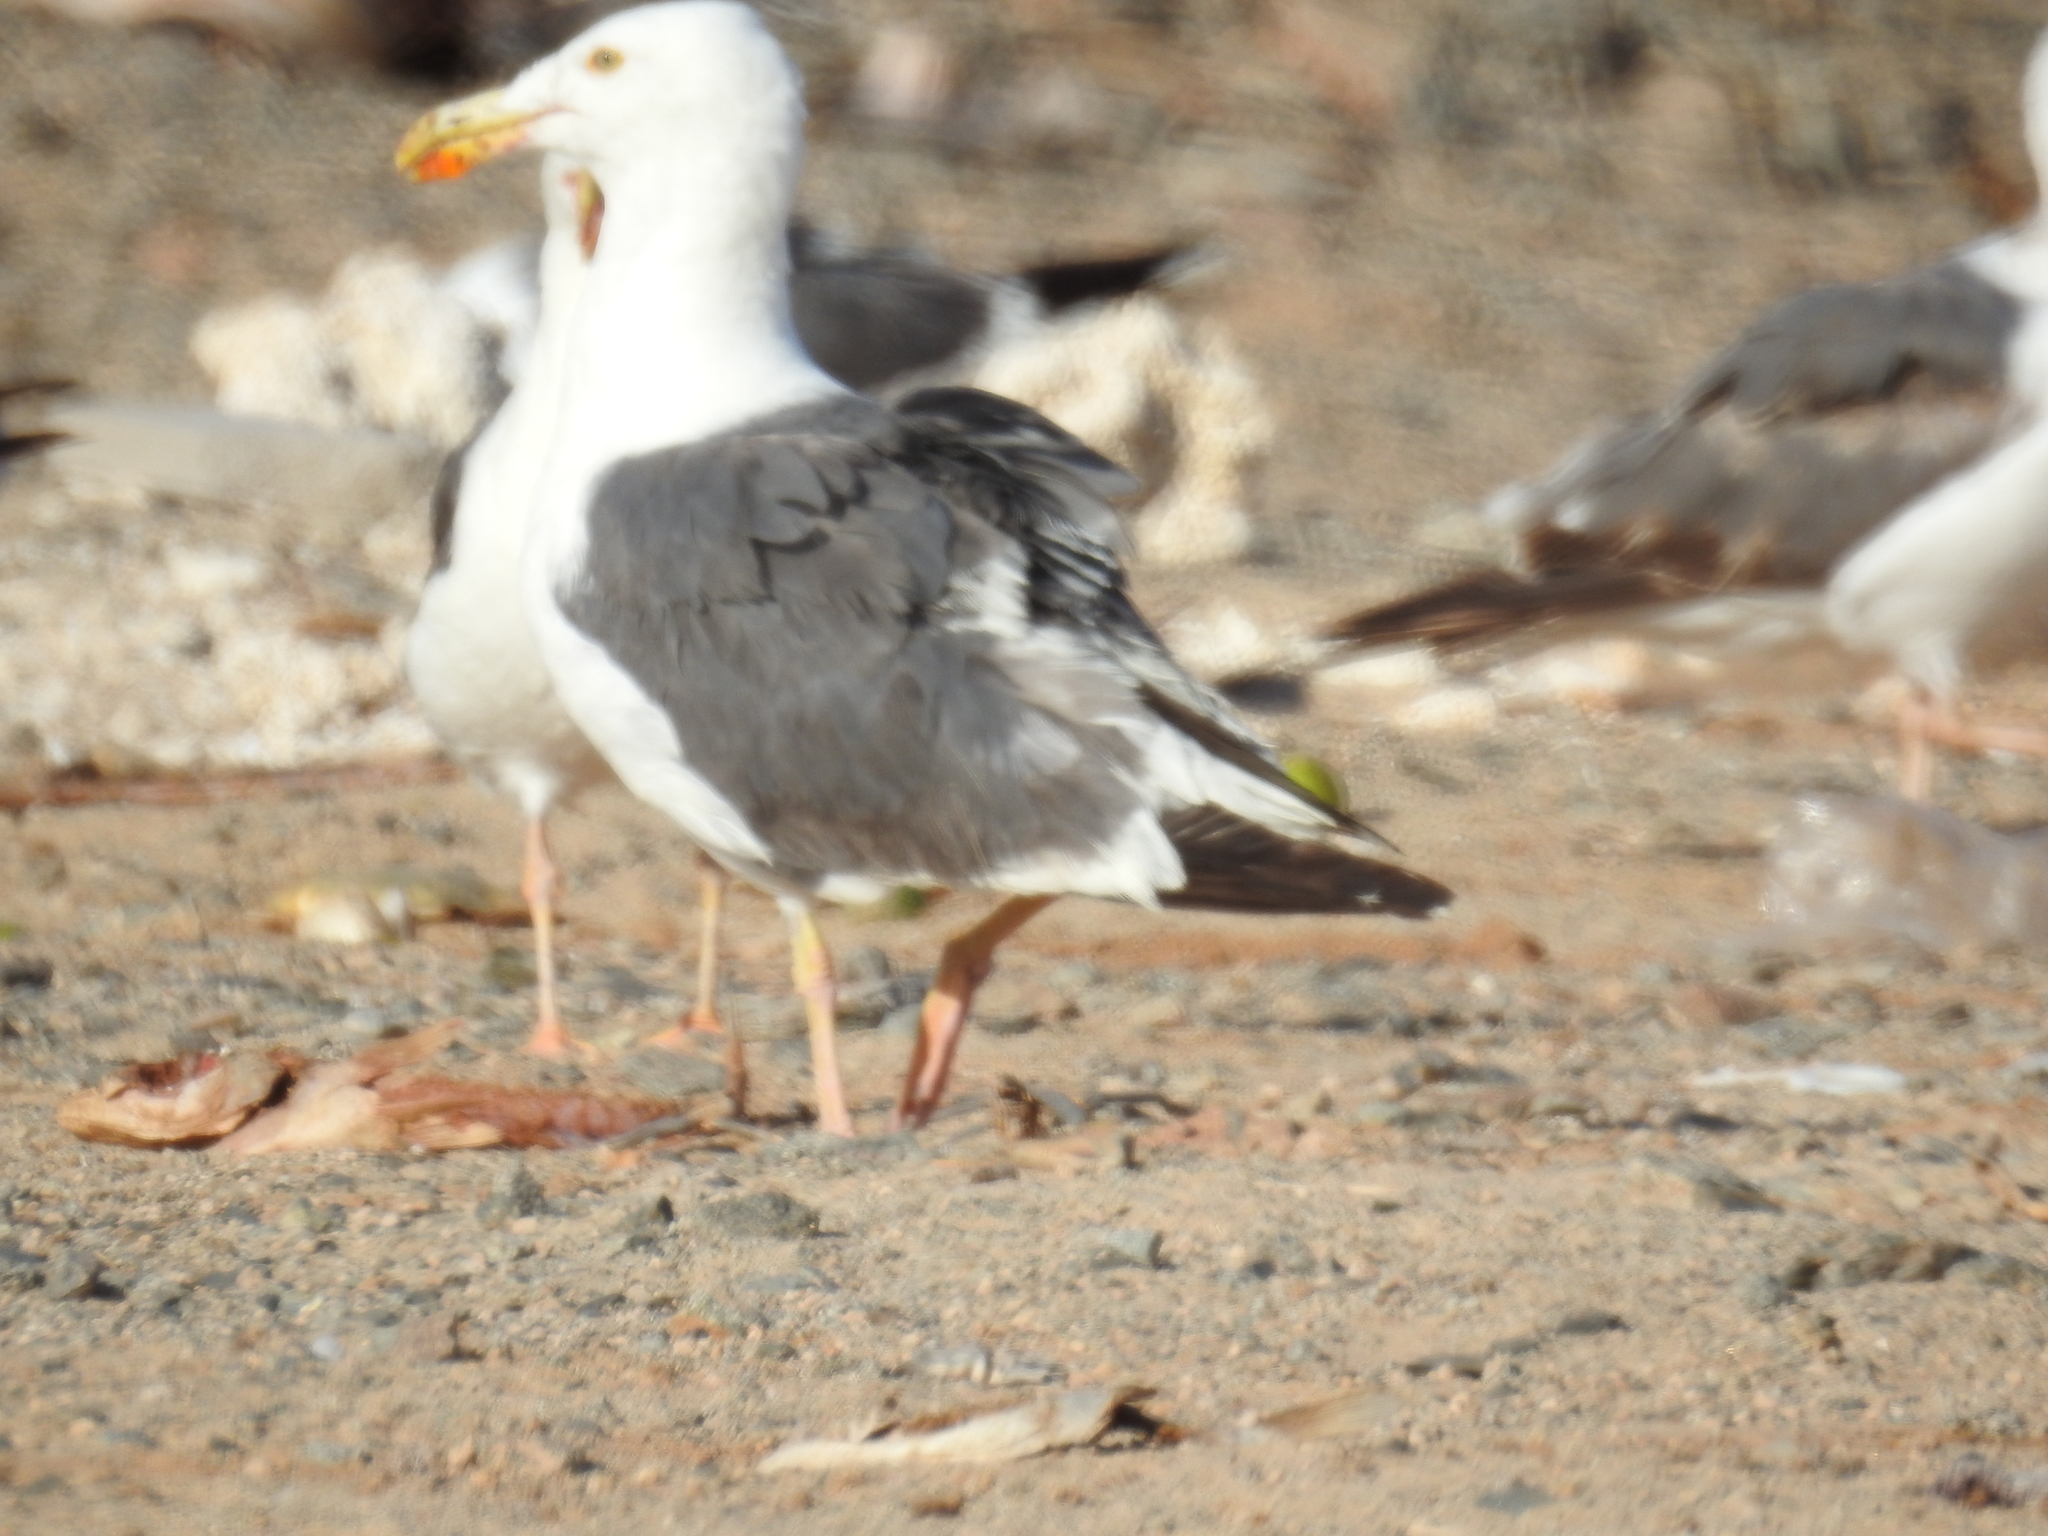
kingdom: Animalia
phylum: Chordata
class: Aves
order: Charadriiformes
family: Laridae
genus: Larus
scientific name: Larus livens
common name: Yellow-footed gull
